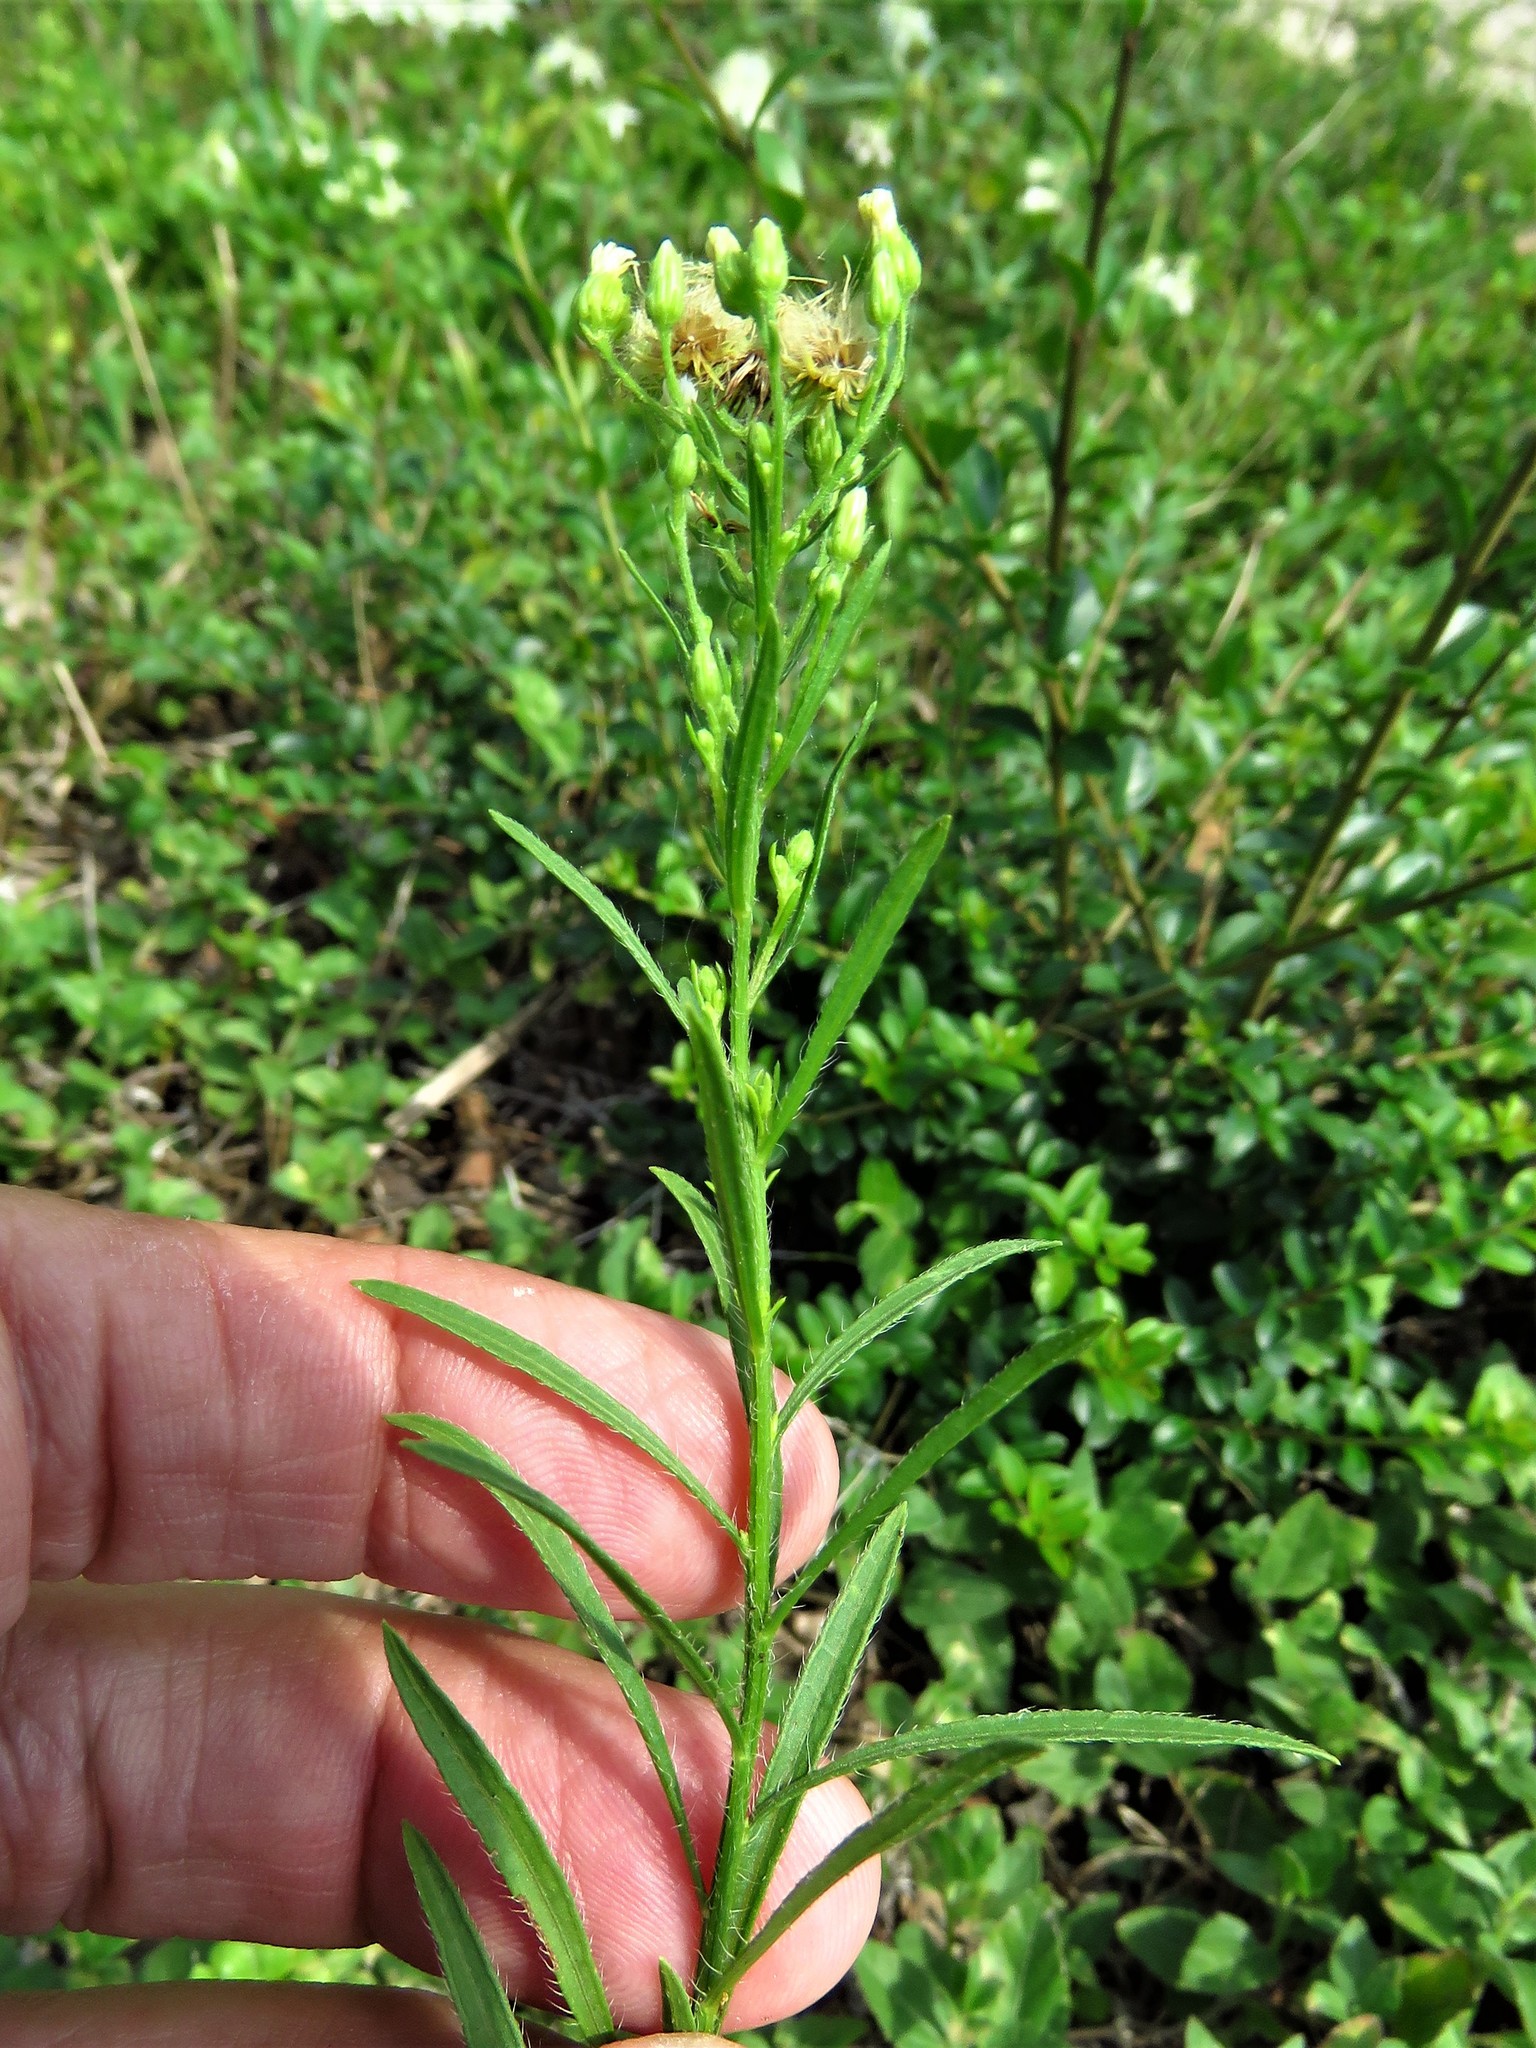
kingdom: Plantae
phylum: Tracheophyta
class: Magnoliopsida
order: Asterales
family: Asteraceae
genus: Erigeron
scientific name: Erigeron canadensis
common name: Canadian fleabane
